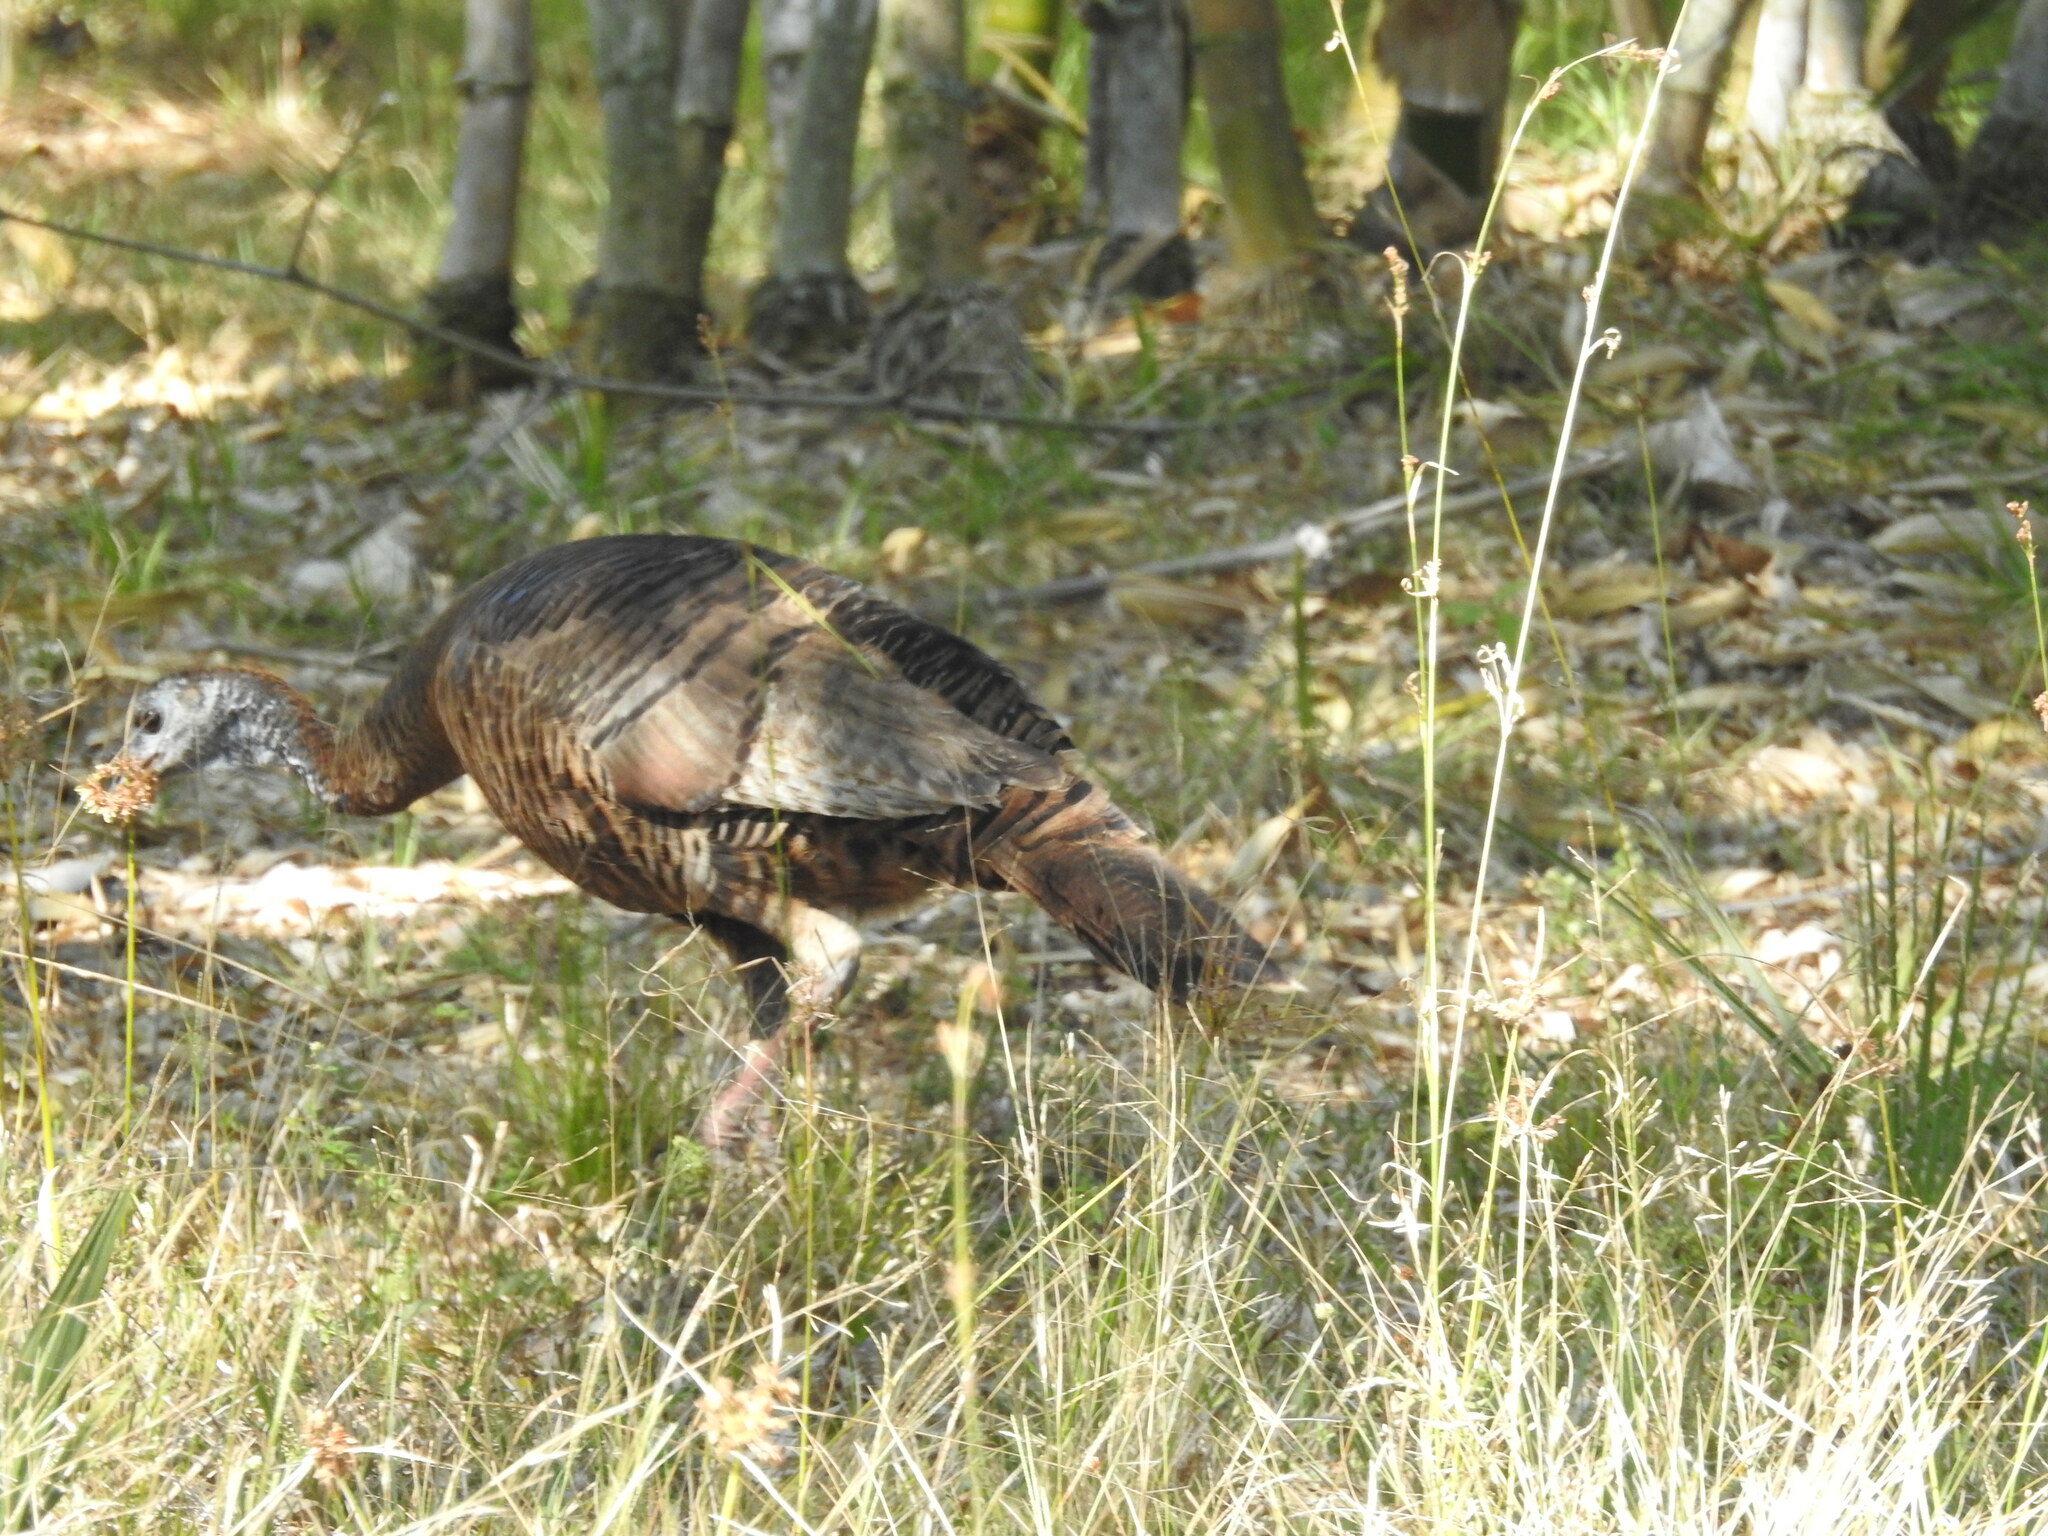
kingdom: Animalia
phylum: Chordata
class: Aves
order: Galliformes
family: Phasianidae
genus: Meleagris
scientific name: Meleagris gallopavo
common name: Wild turkey
